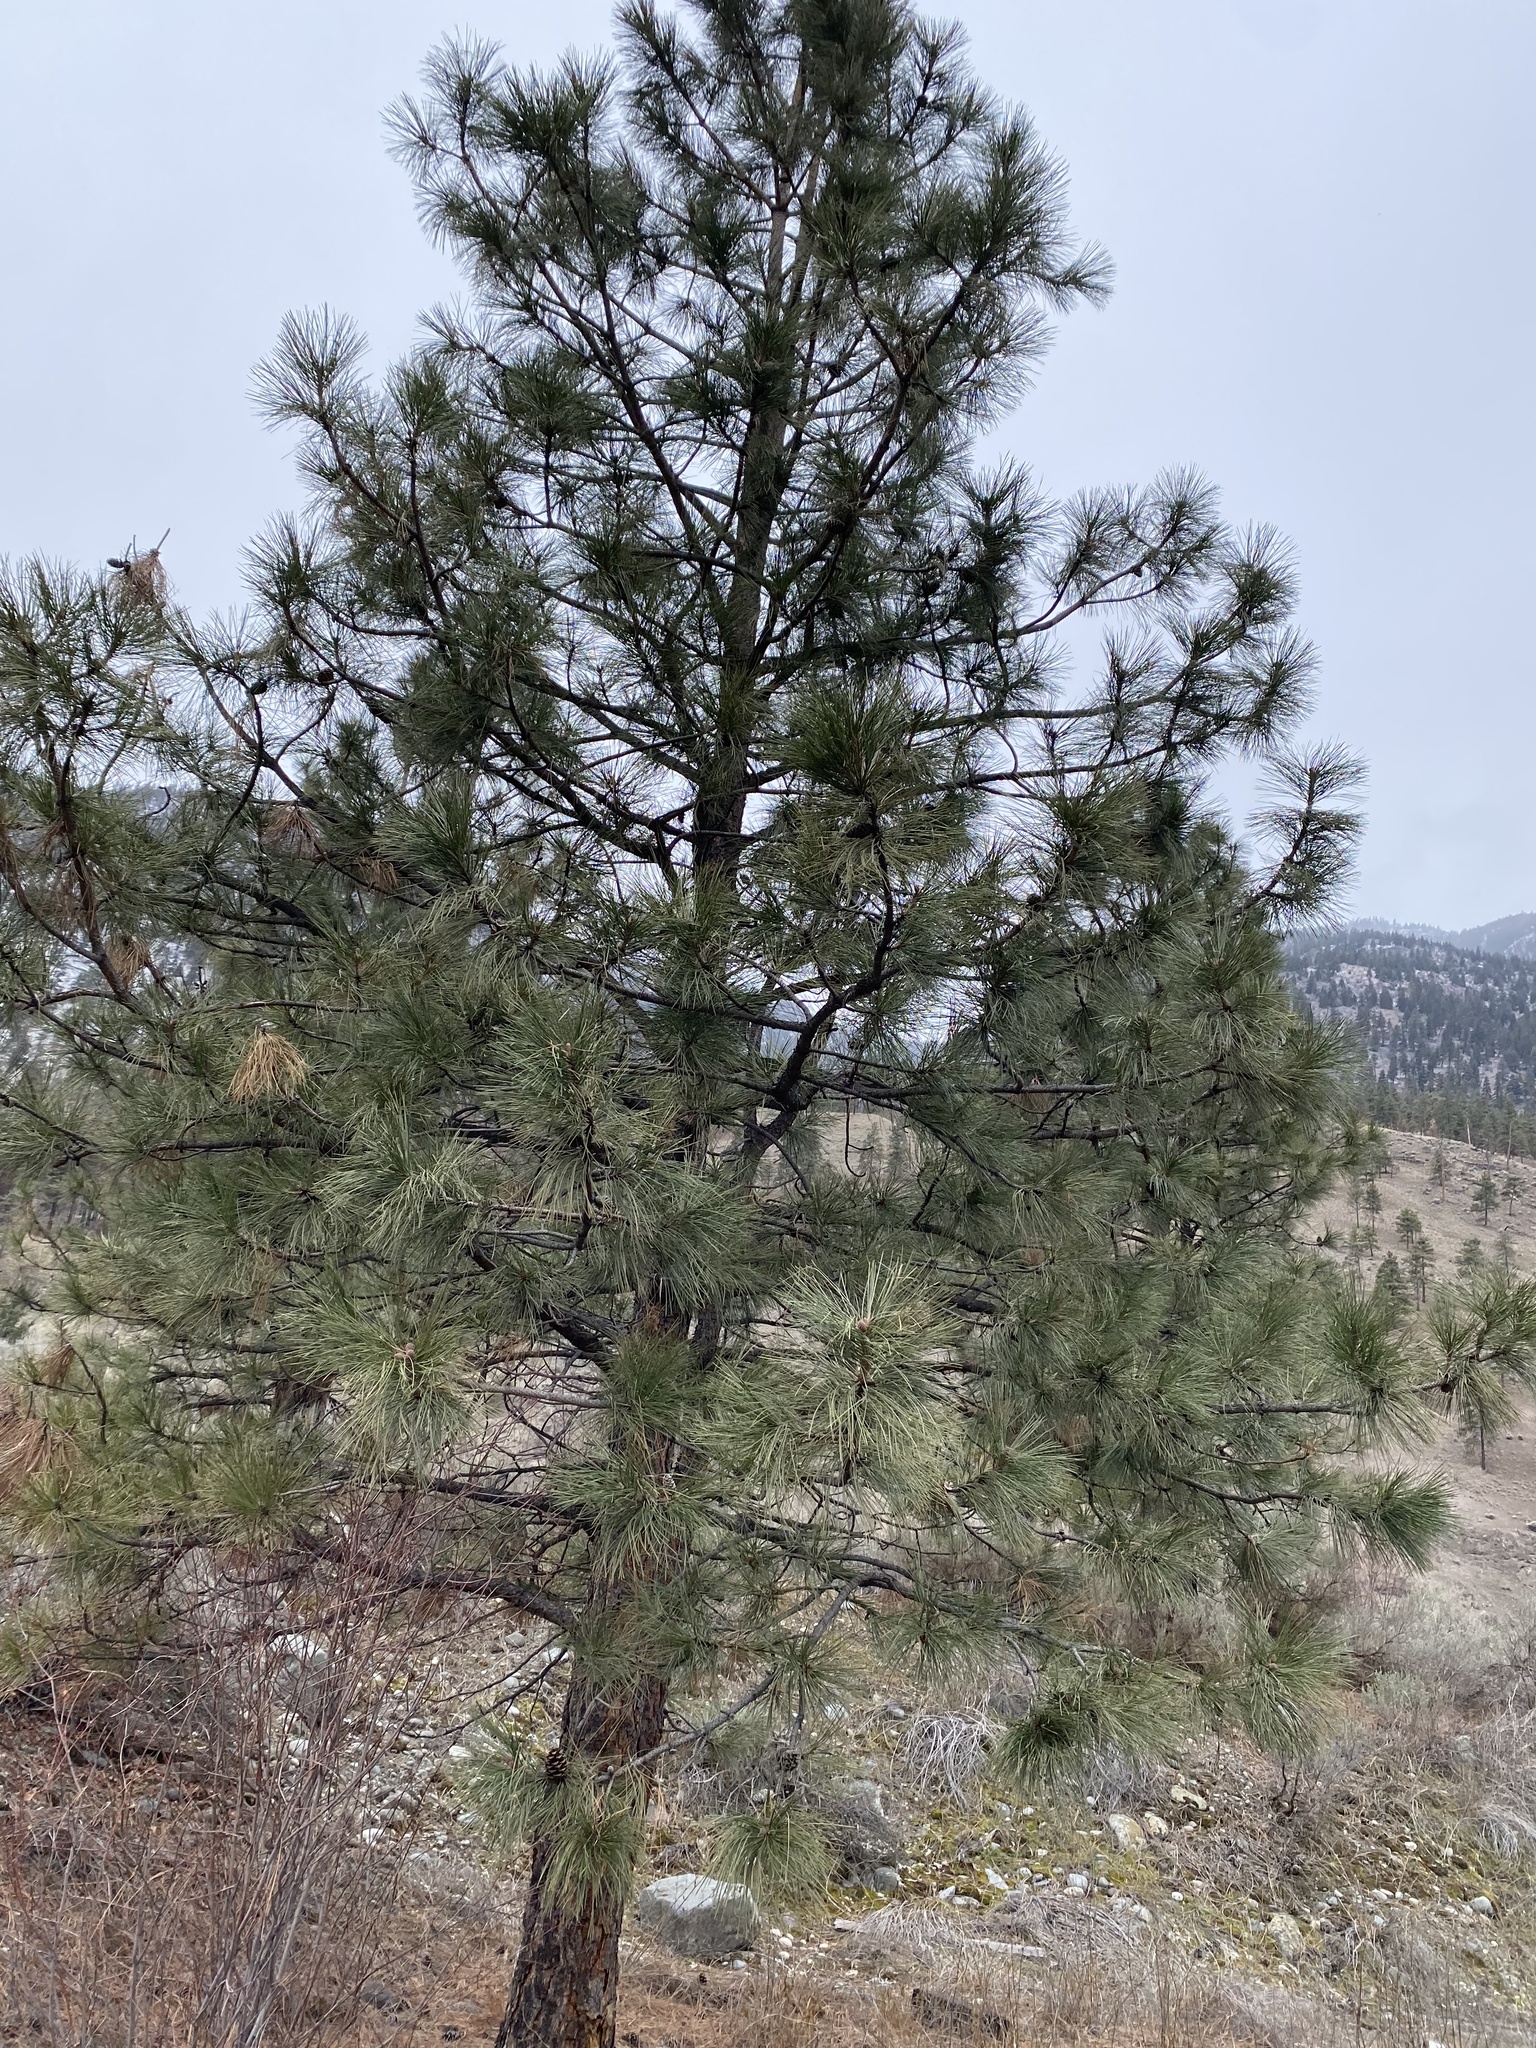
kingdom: Plantae
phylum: Tracheophyta
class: Pinopsida
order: Pinales
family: Pinaceae
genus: Pinus
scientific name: Pinus ponderosa
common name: Western yellow-pine
